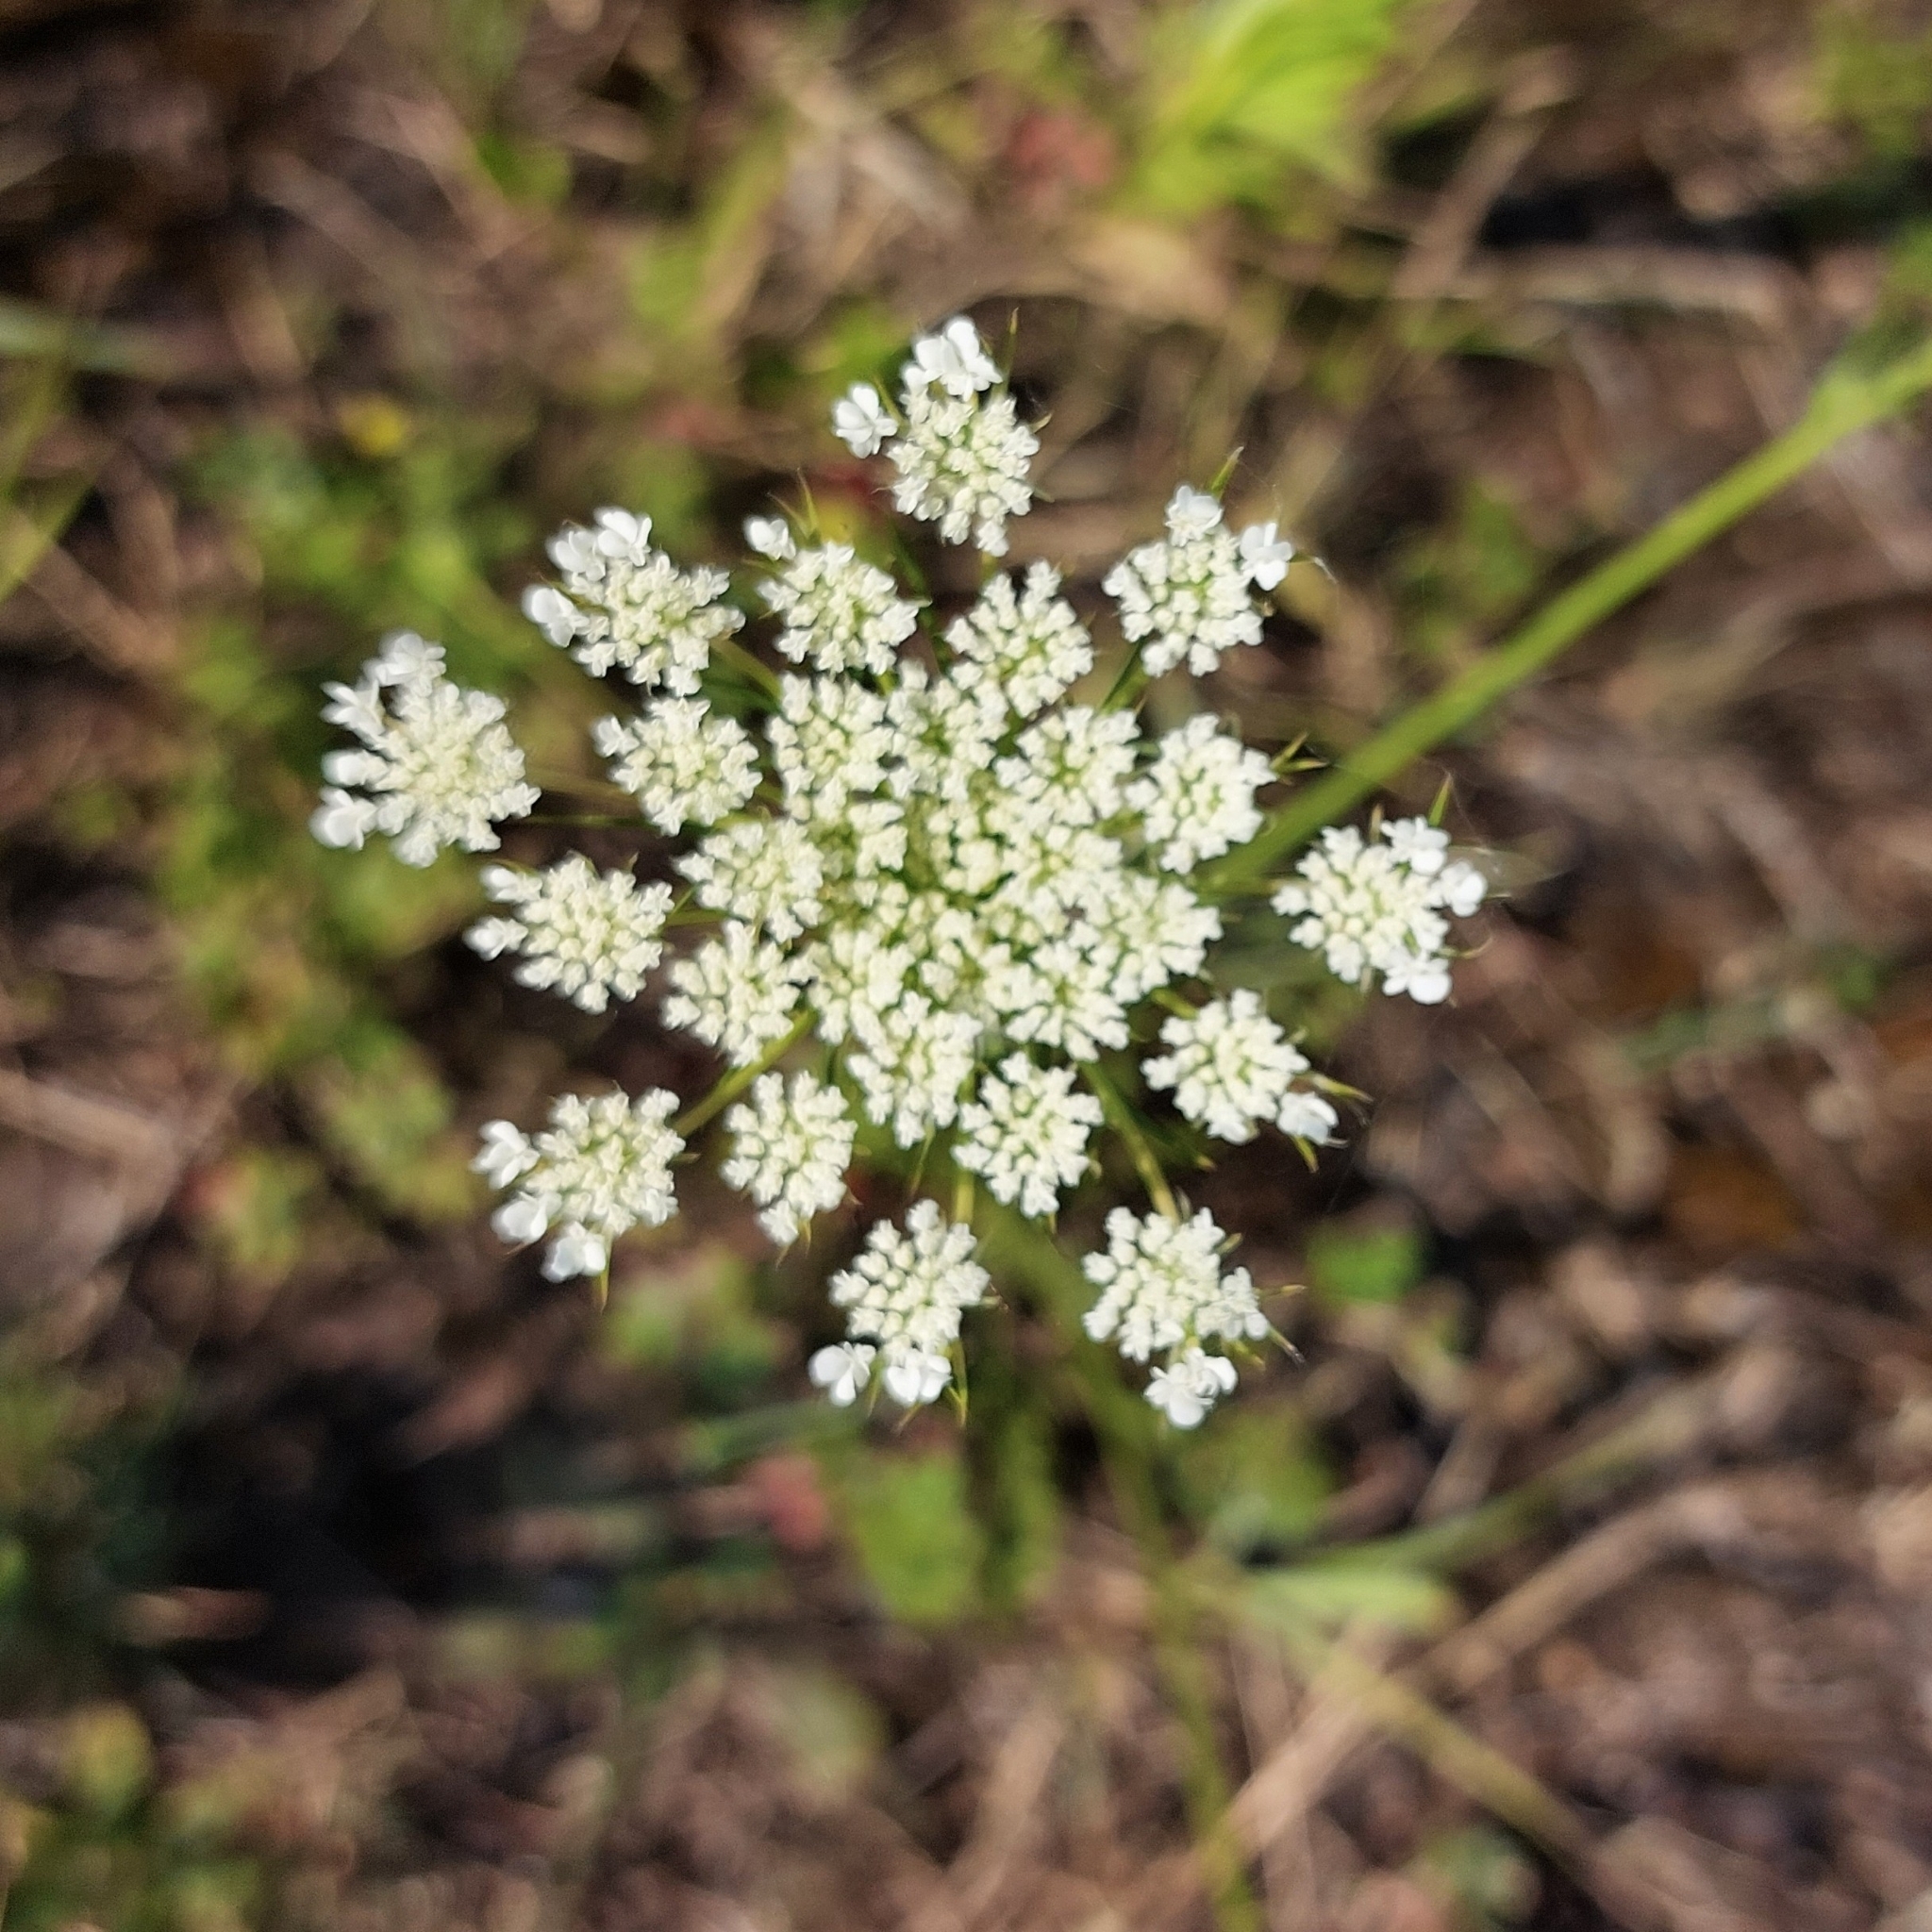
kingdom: Plantae
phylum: Tracheophyta
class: Magnoliopsida
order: Apiales
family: Apiaceae
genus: Daucus
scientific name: Daucus carota
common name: Wild carrot
